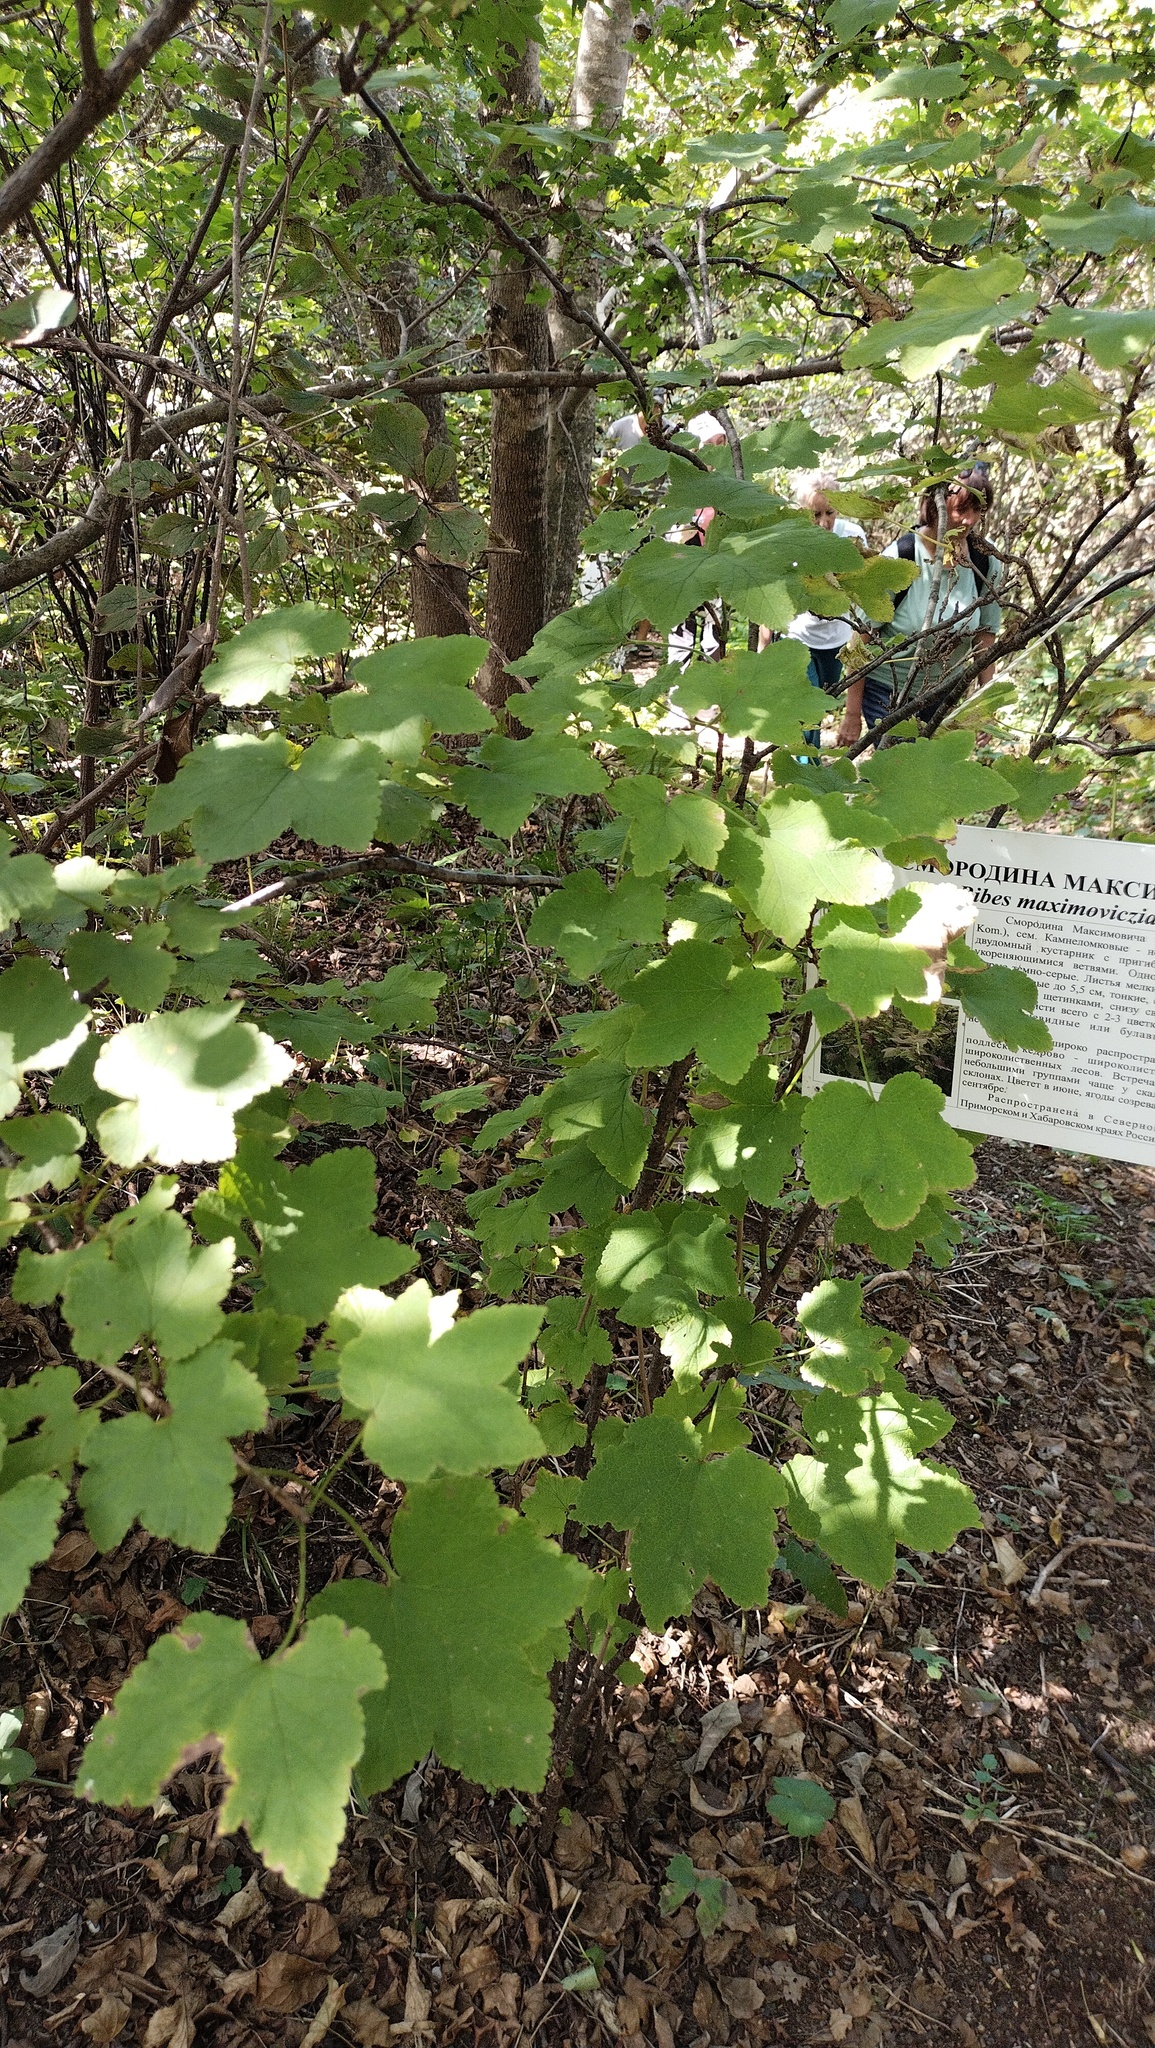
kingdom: Plantae
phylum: Tracheophyta
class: Magnoliopsida
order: Saxifragales
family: Grossulariaceae
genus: Ribes
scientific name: Ribes mandshuricum
